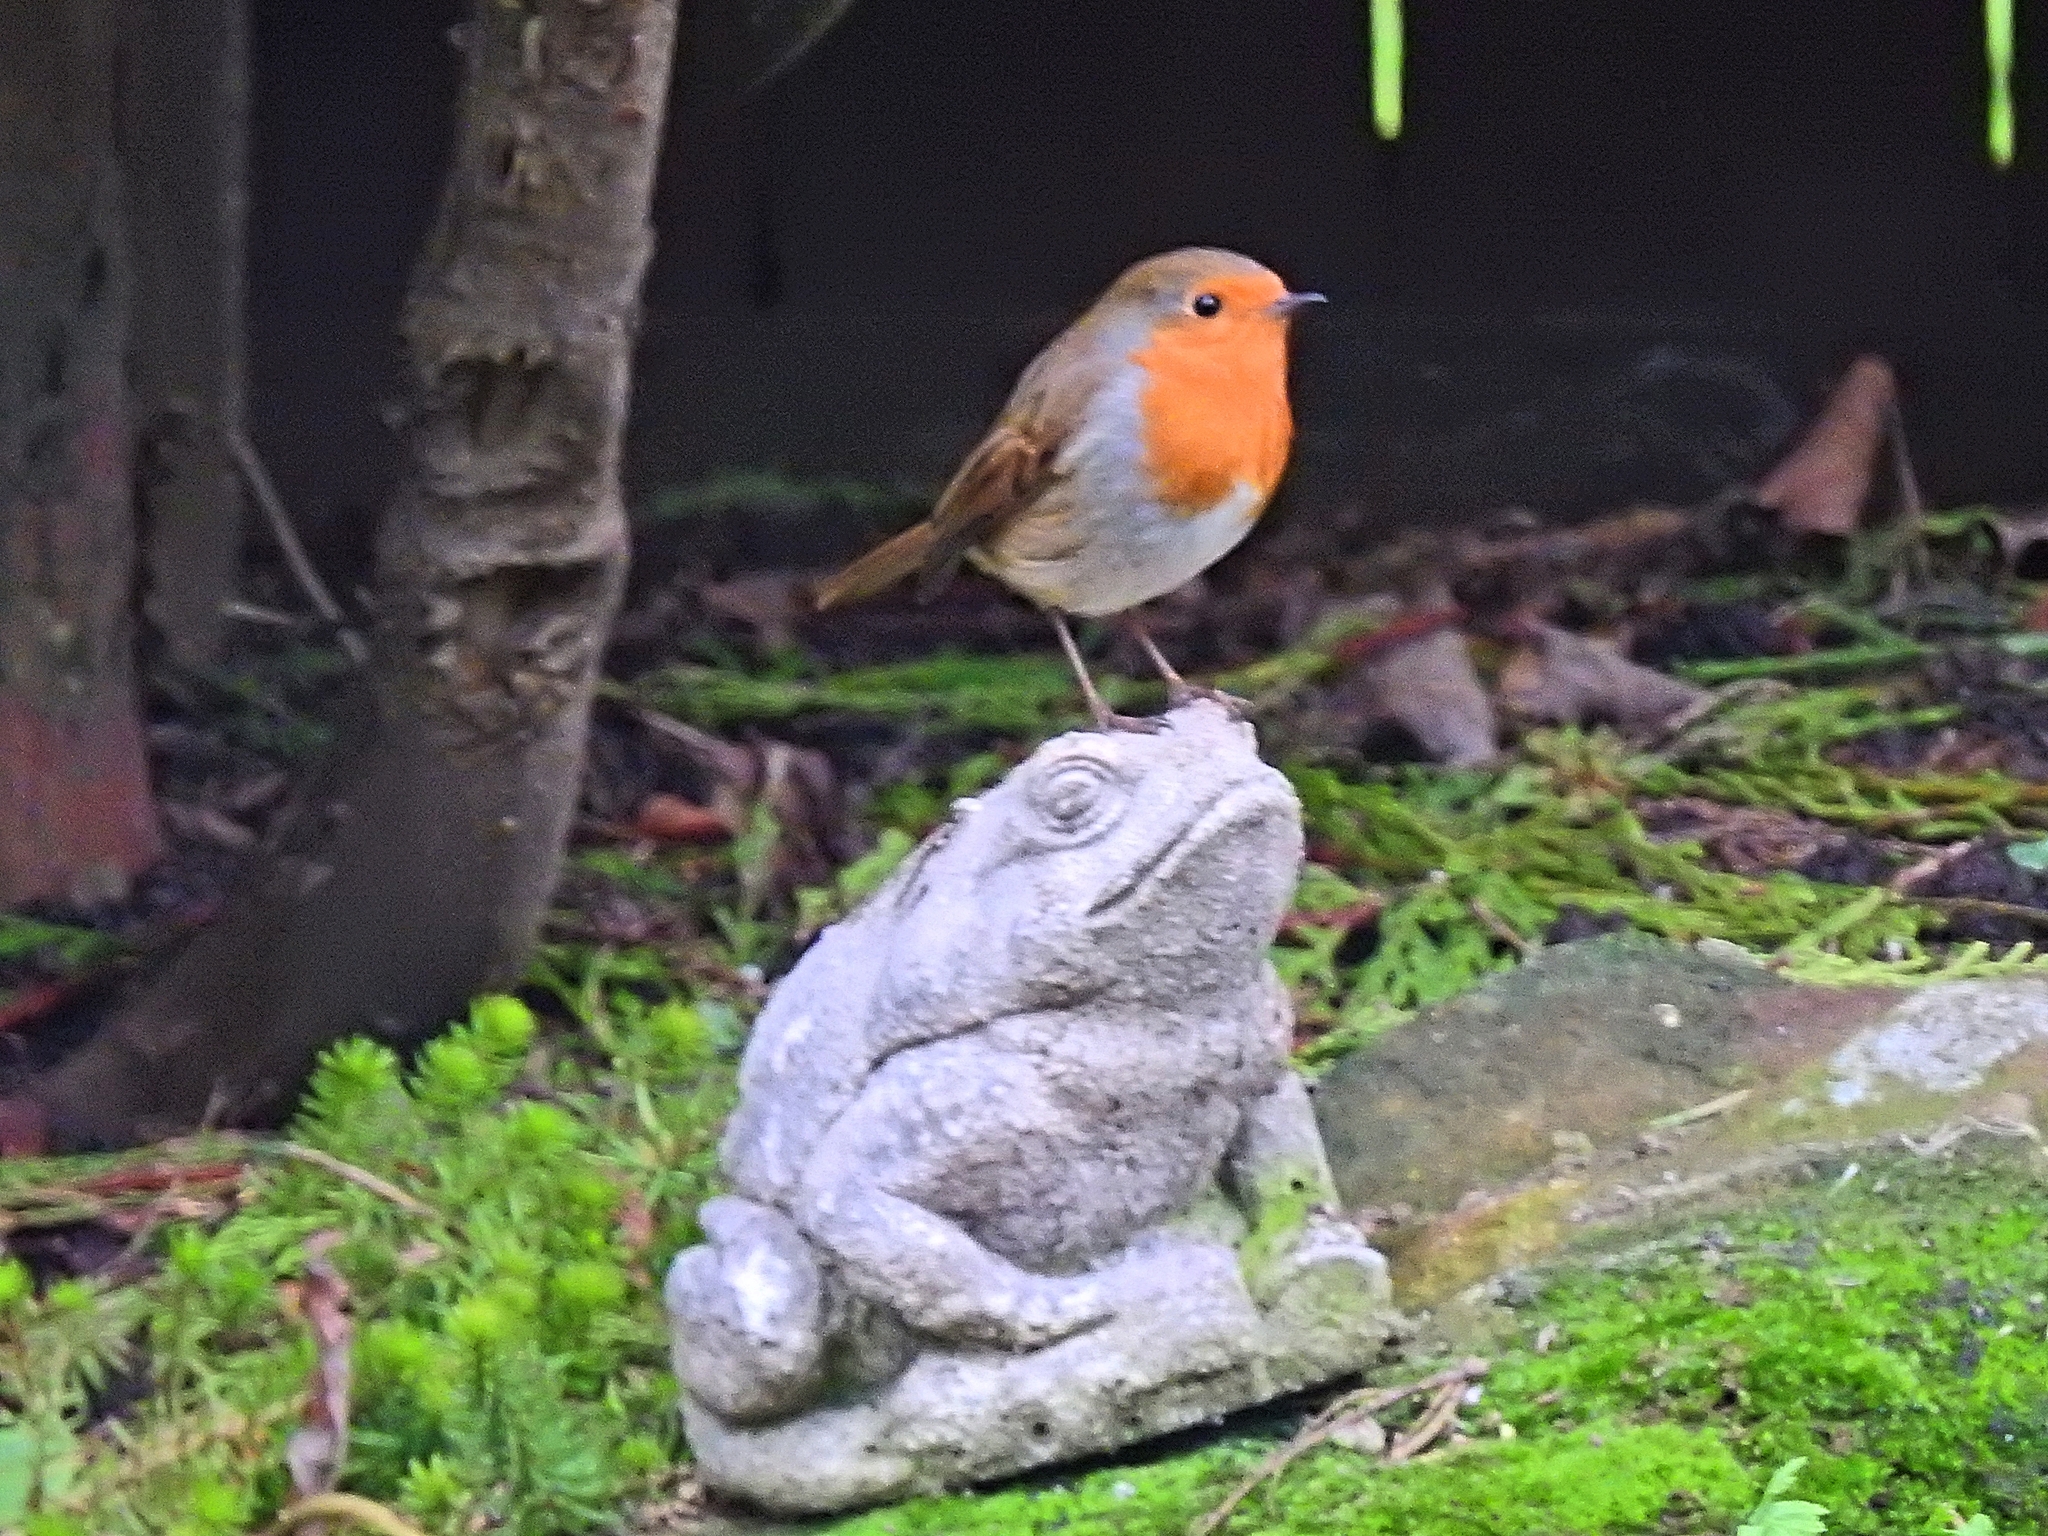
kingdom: Animalia
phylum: Chordata
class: Aves
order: Passeriformes
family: Muscicapidae
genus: Erithacus
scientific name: Erithacus rubecula
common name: European robin
